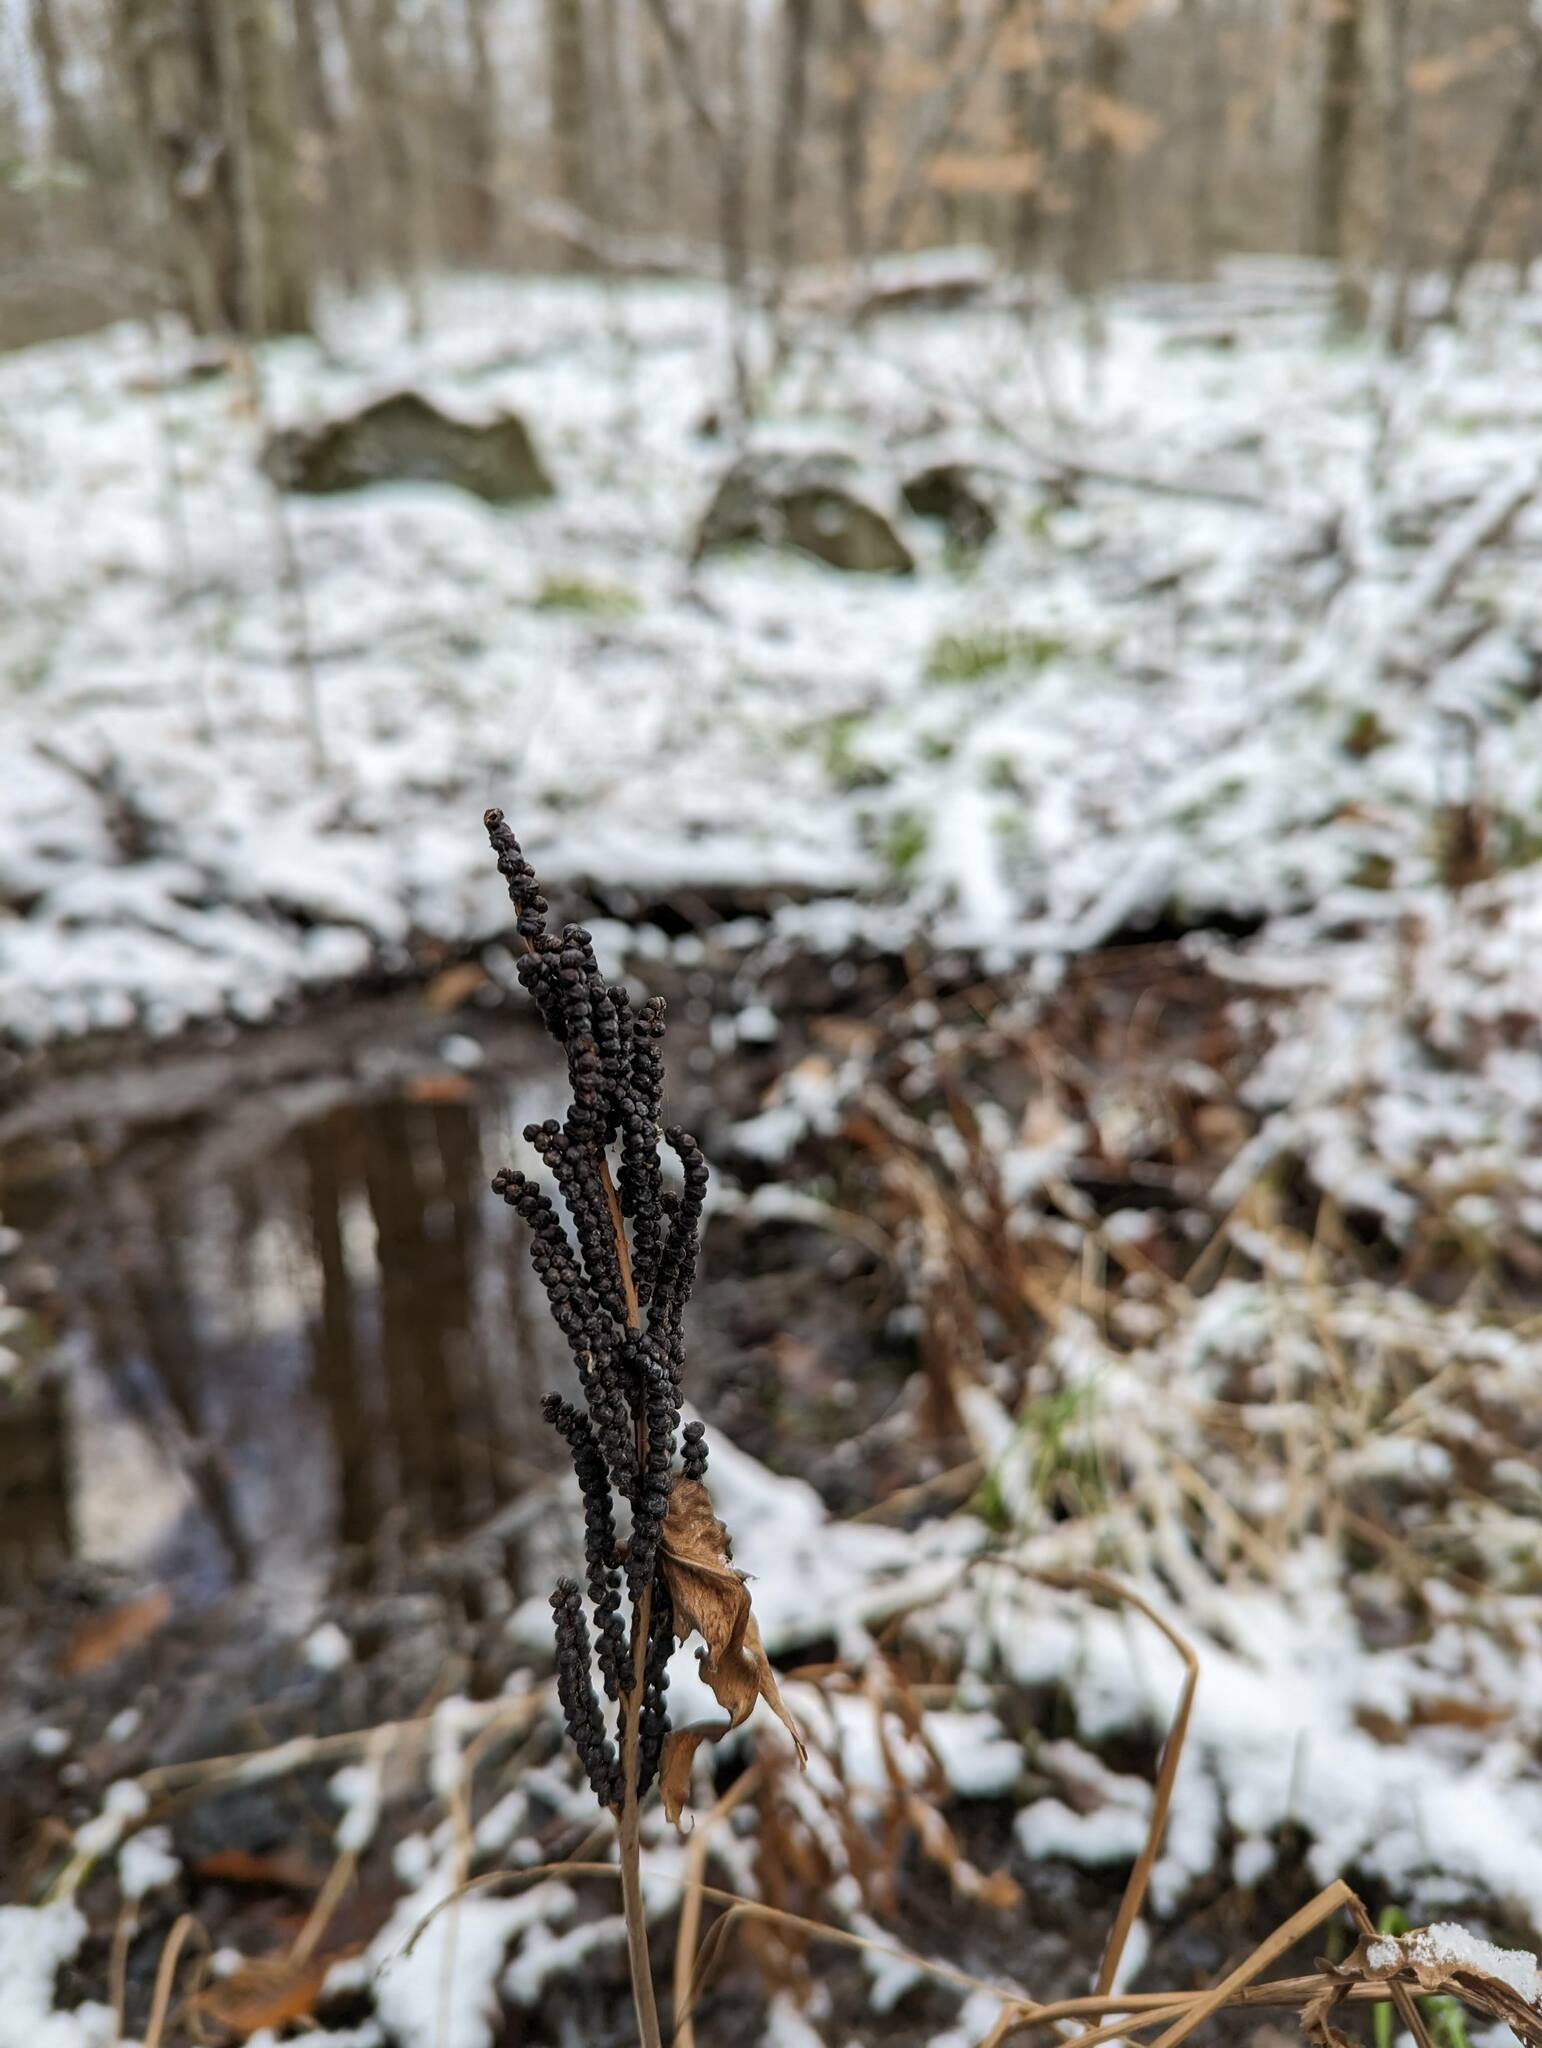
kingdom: Plantae
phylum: Tracheophyta
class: Polypodiopsida
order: Polypodiales
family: Onocleaceae
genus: Onoclea
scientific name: Onoclea sensibilis
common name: Sensitive fern
